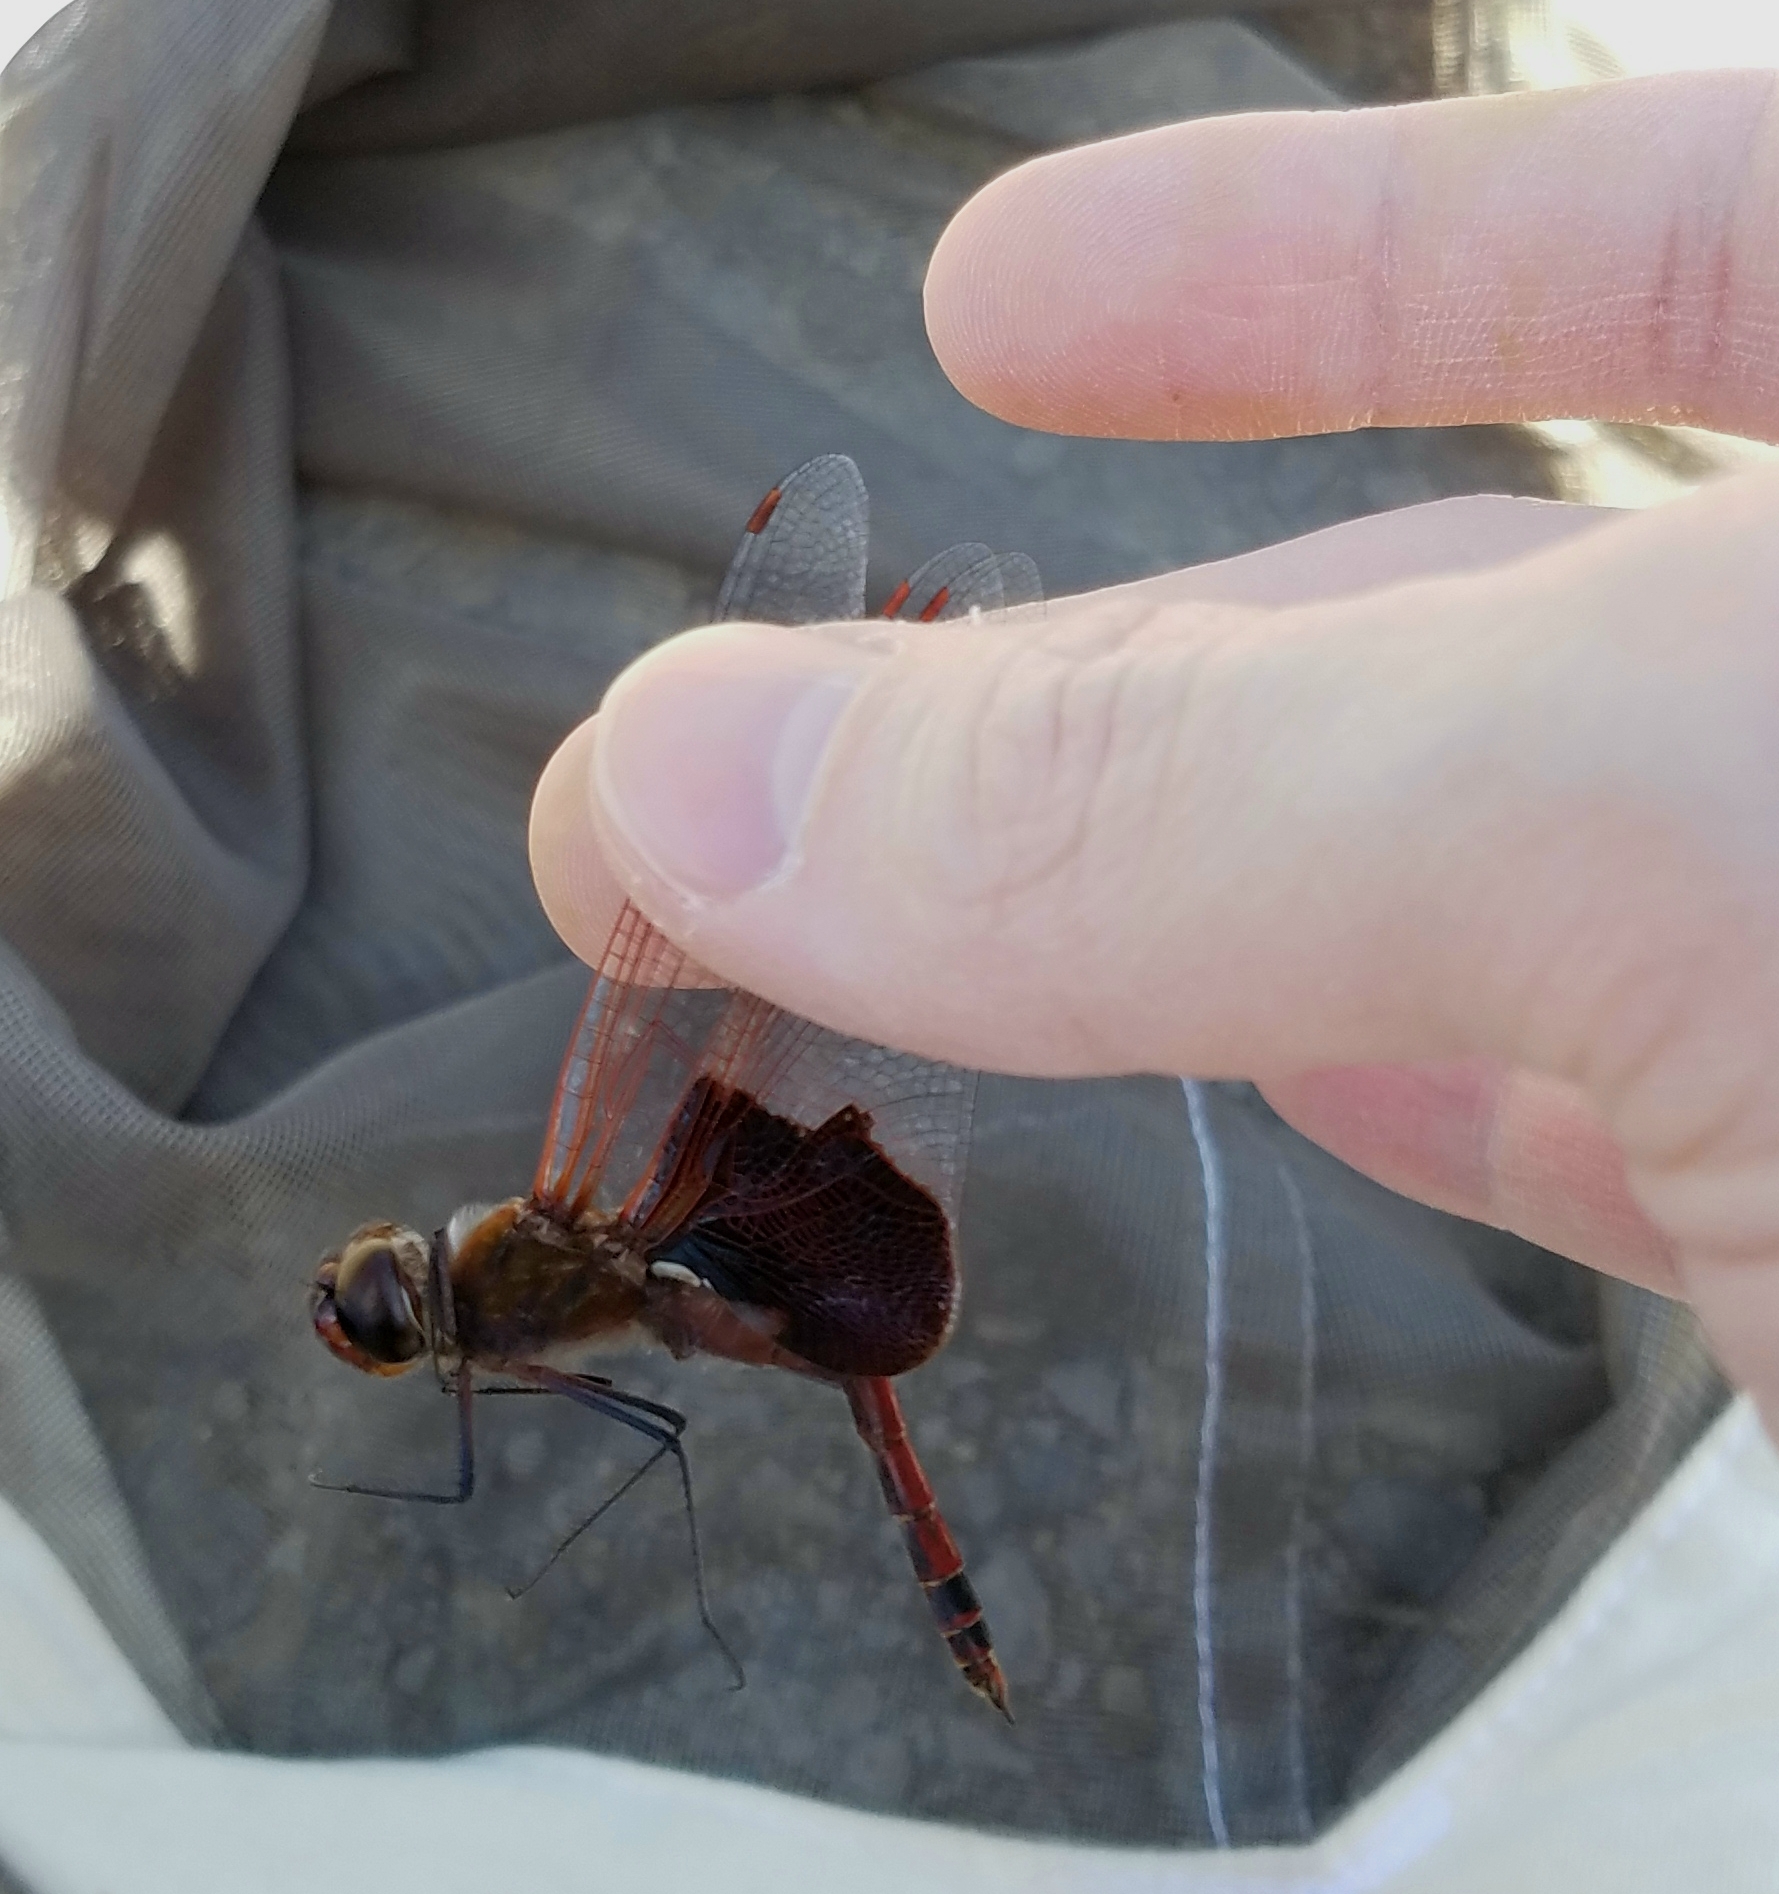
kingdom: Animalia
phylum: Arthropoda
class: Insecta
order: Odonata
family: Libellulidae
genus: Tramea
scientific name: Tramea carolina
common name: Carolina saddlebags
